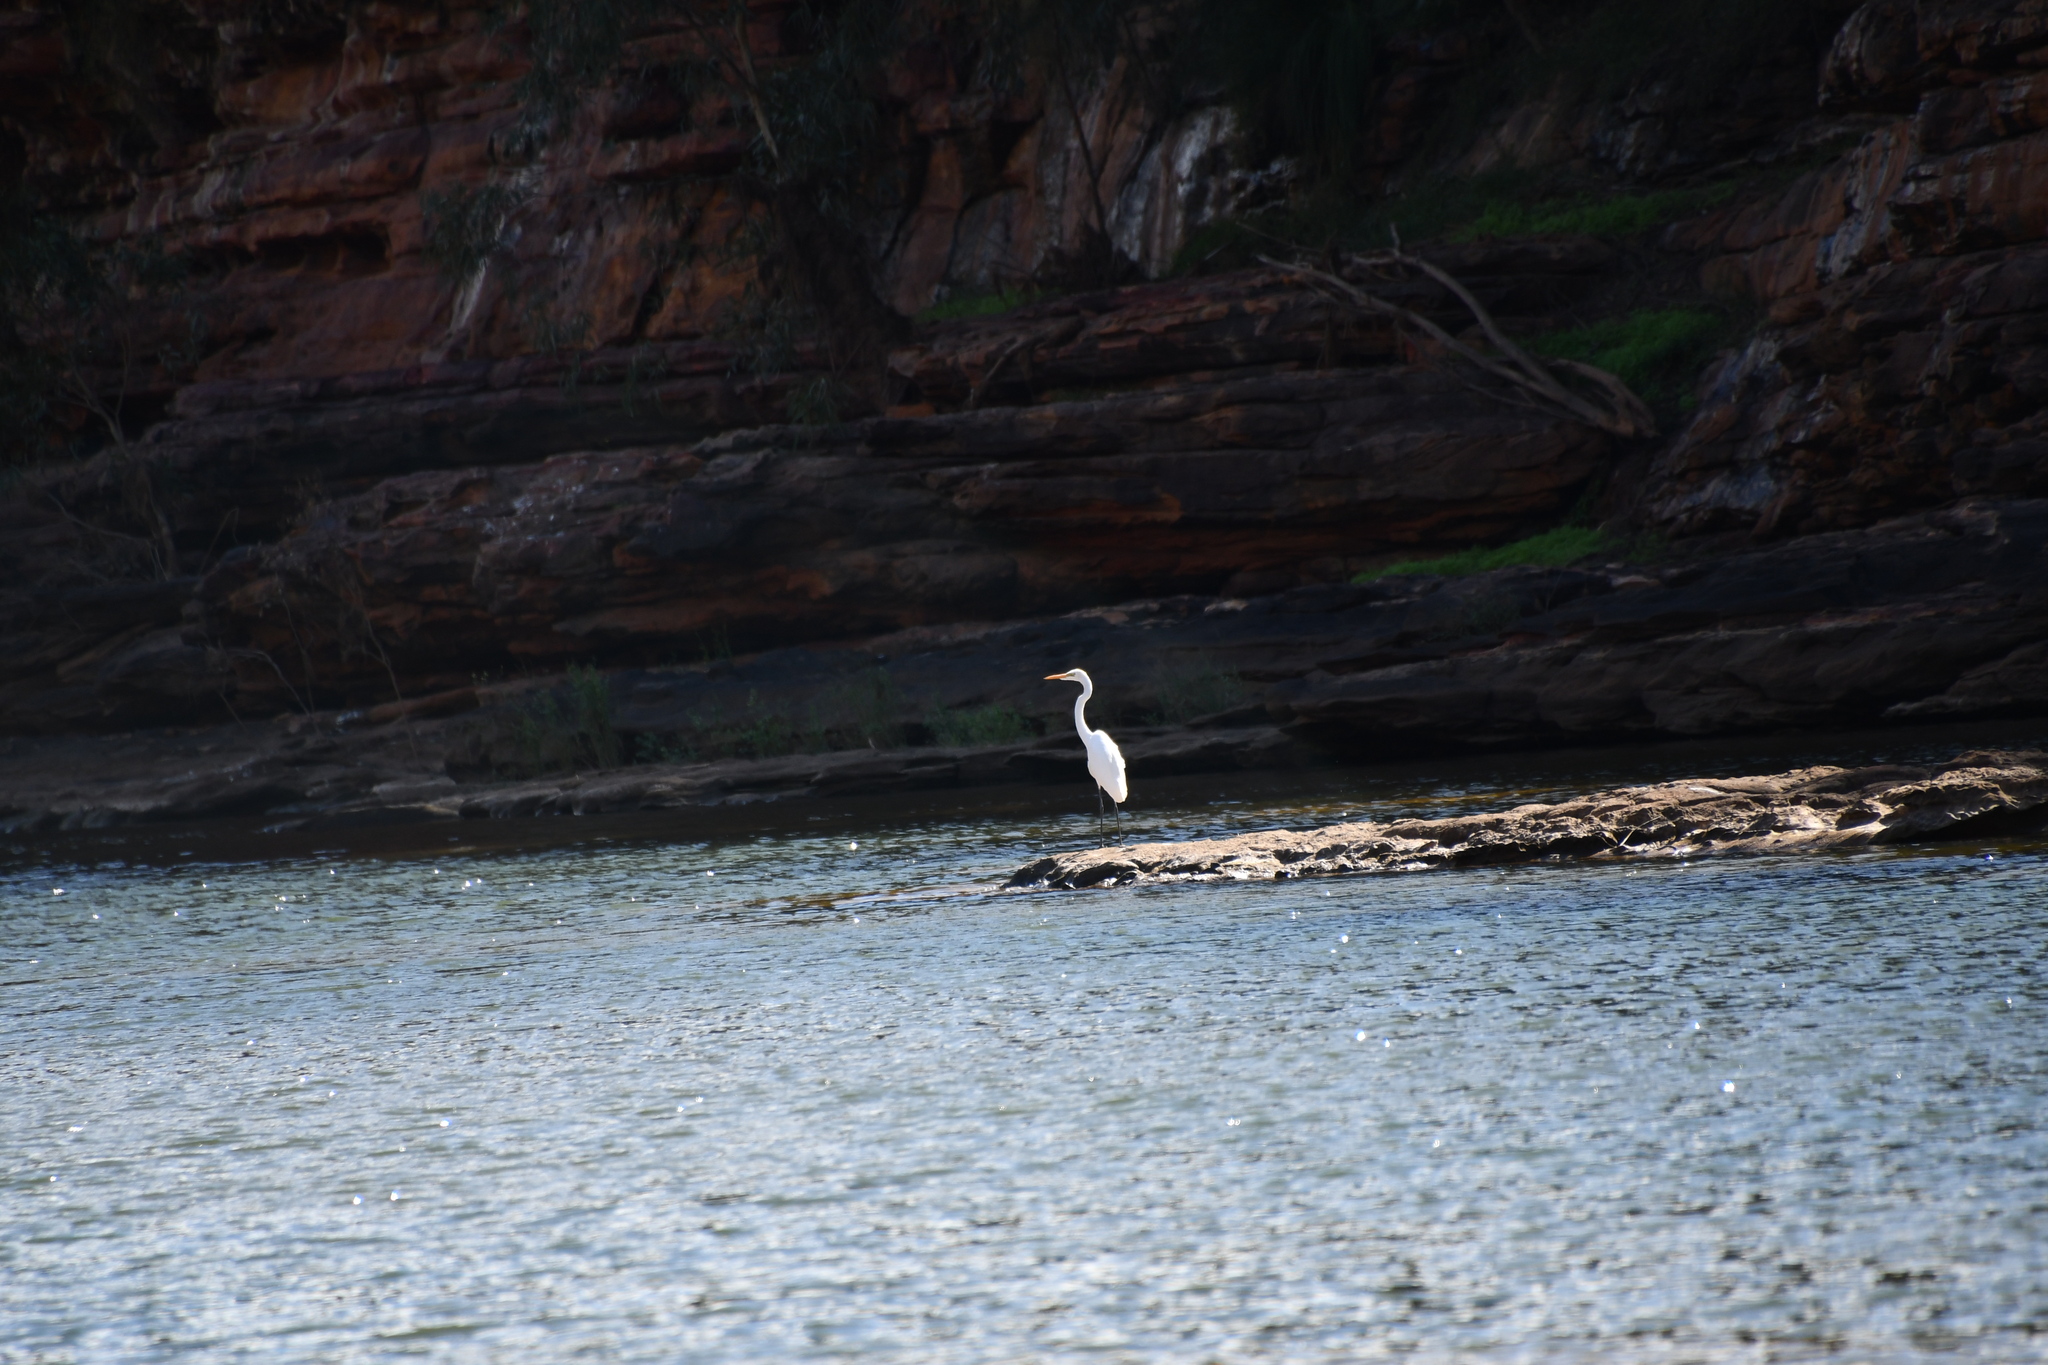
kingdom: Animalia
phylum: Chordata
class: Aves
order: Pelecaniformes
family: Ardeidae
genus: Ardea
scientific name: Ardea alba
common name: Great egret
